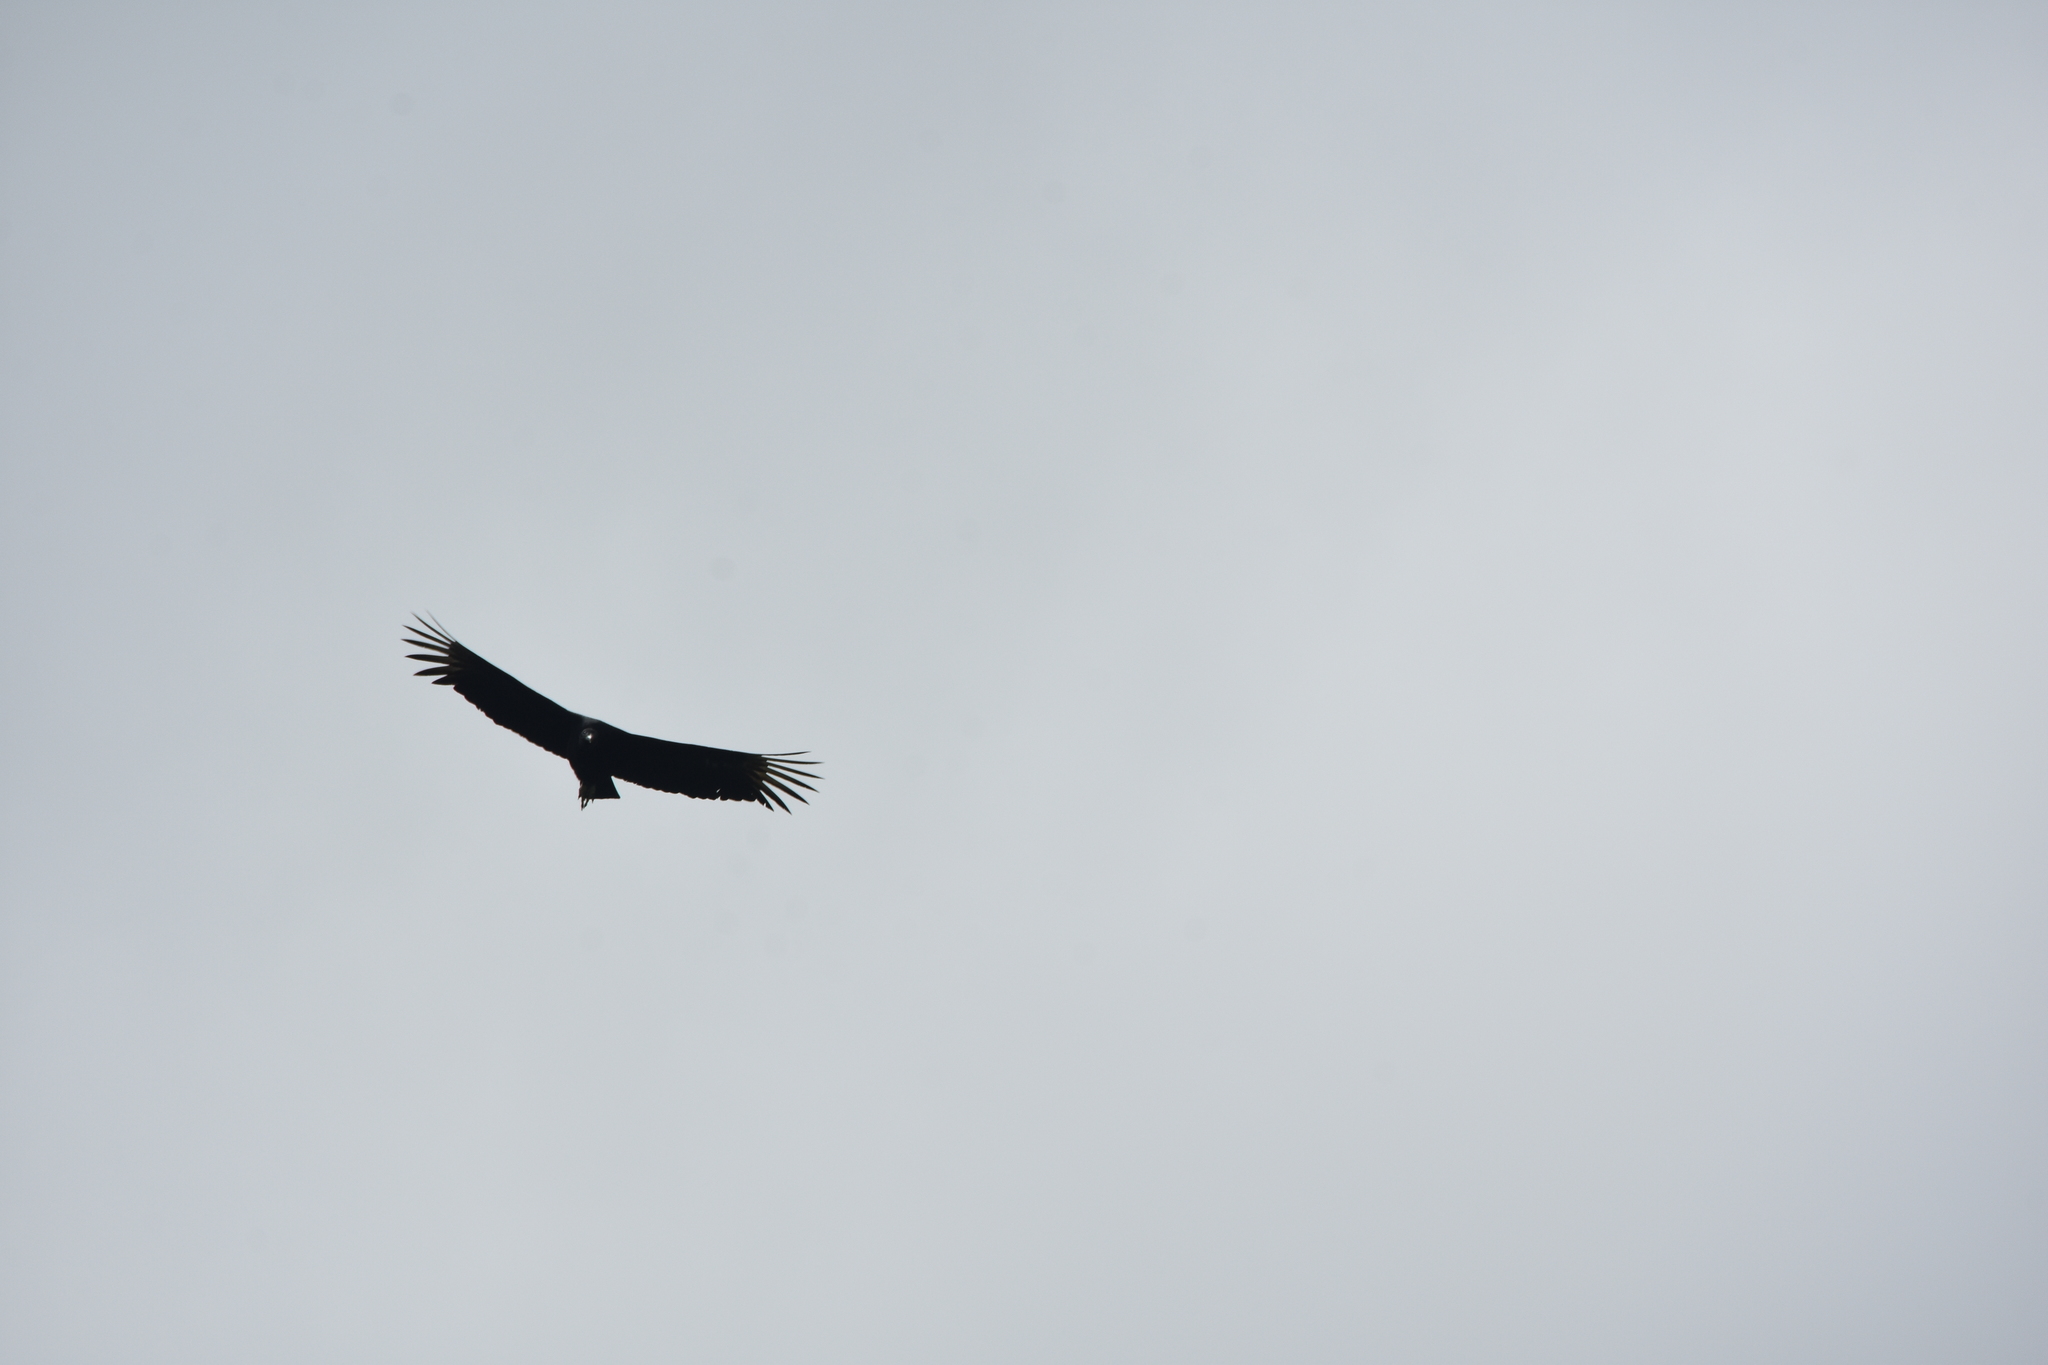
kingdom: Animalia
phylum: Chordata
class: Aves
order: Accipitriformes
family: Cathartidae
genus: Coragyps
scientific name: Coragyps atratus
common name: Black vulture
